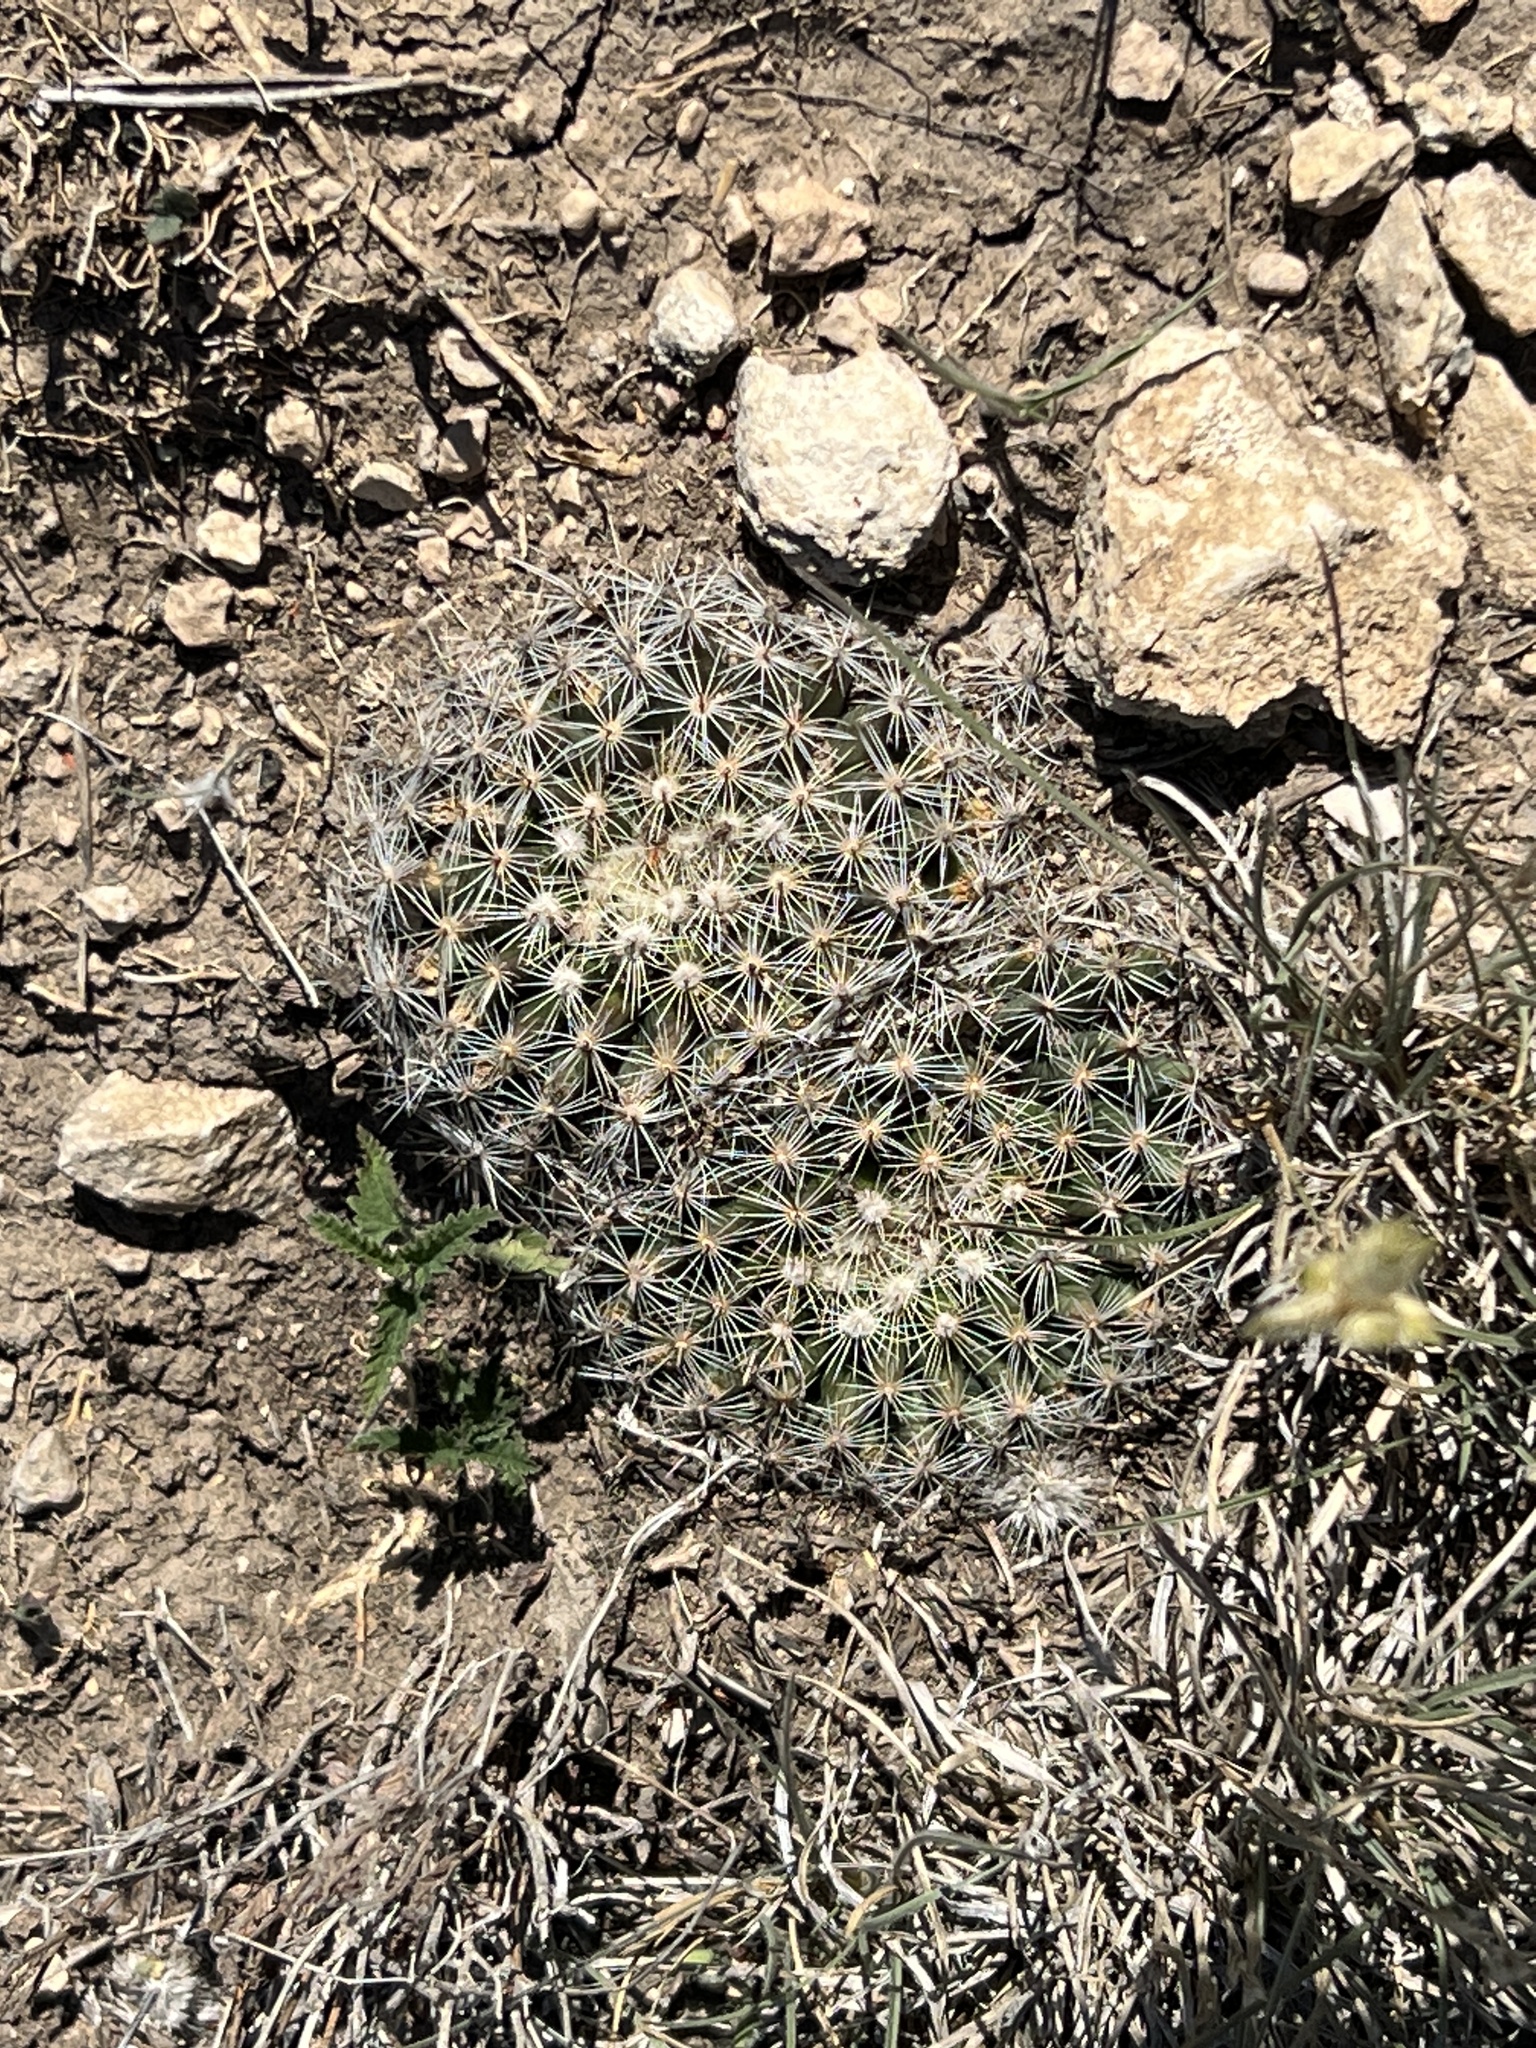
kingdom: Plantae
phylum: Tracheophyta
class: Magnoliopsida
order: Caryophyllales
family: Cactaceae
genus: Mammillaria
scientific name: Mammillaria heyderi
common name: Little nipple cactus
